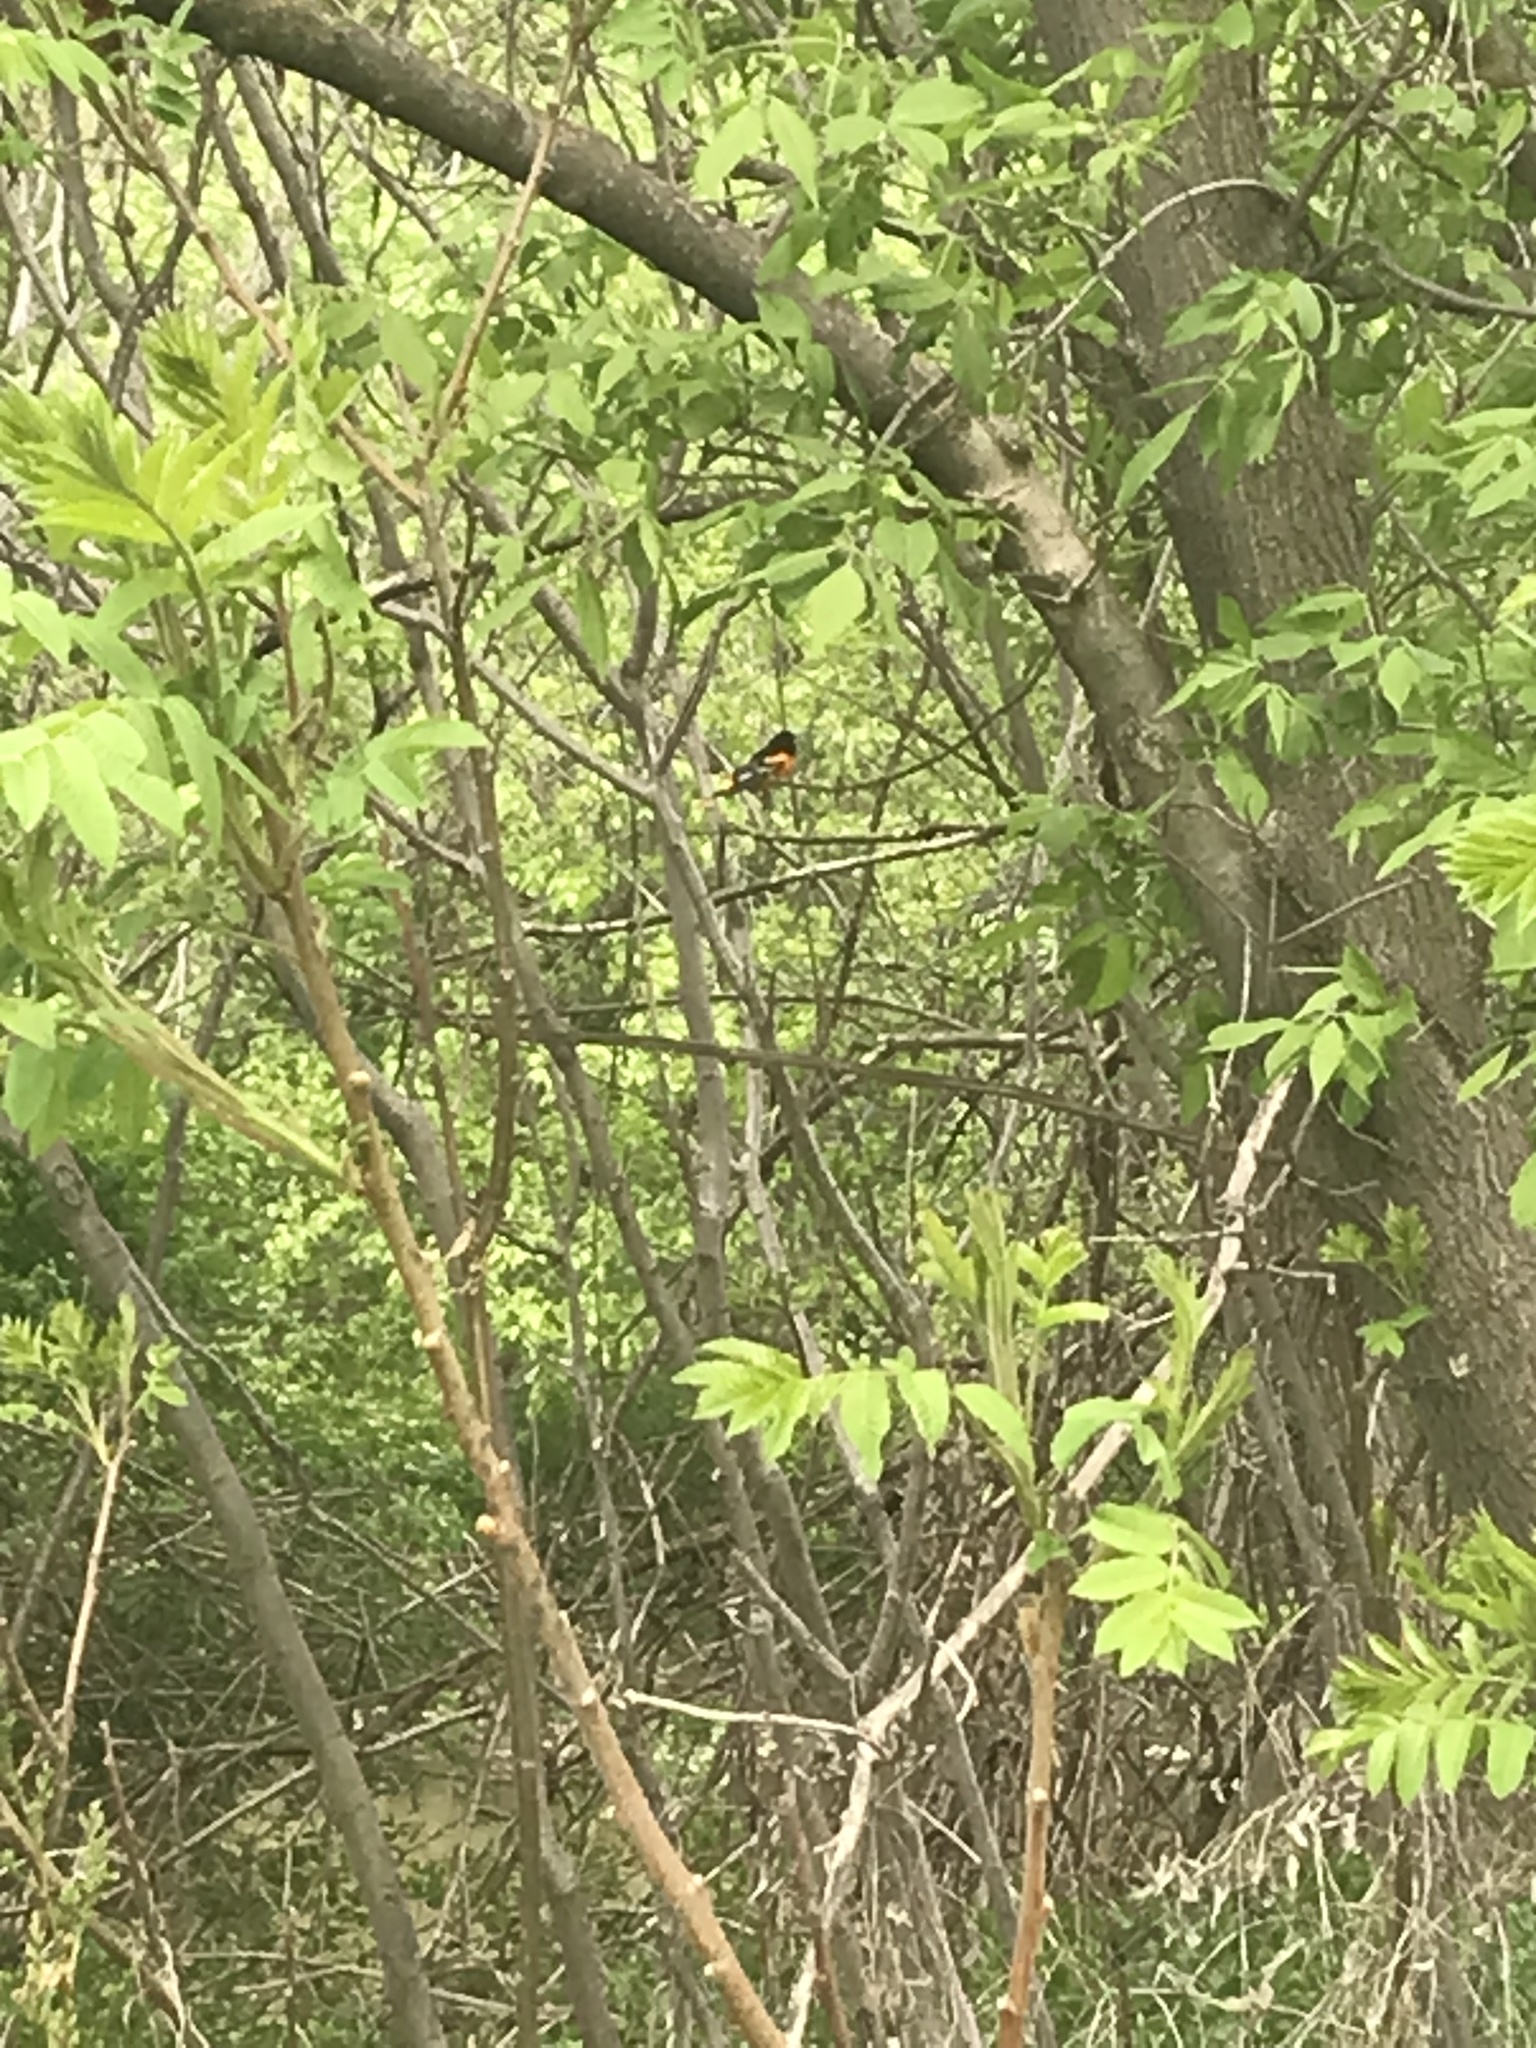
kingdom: Animalia
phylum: Chordata
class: Aves
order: Passeriformes
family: Icteridae
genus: Icterus
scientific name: Icterus galbula
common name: Baltimore oriole
